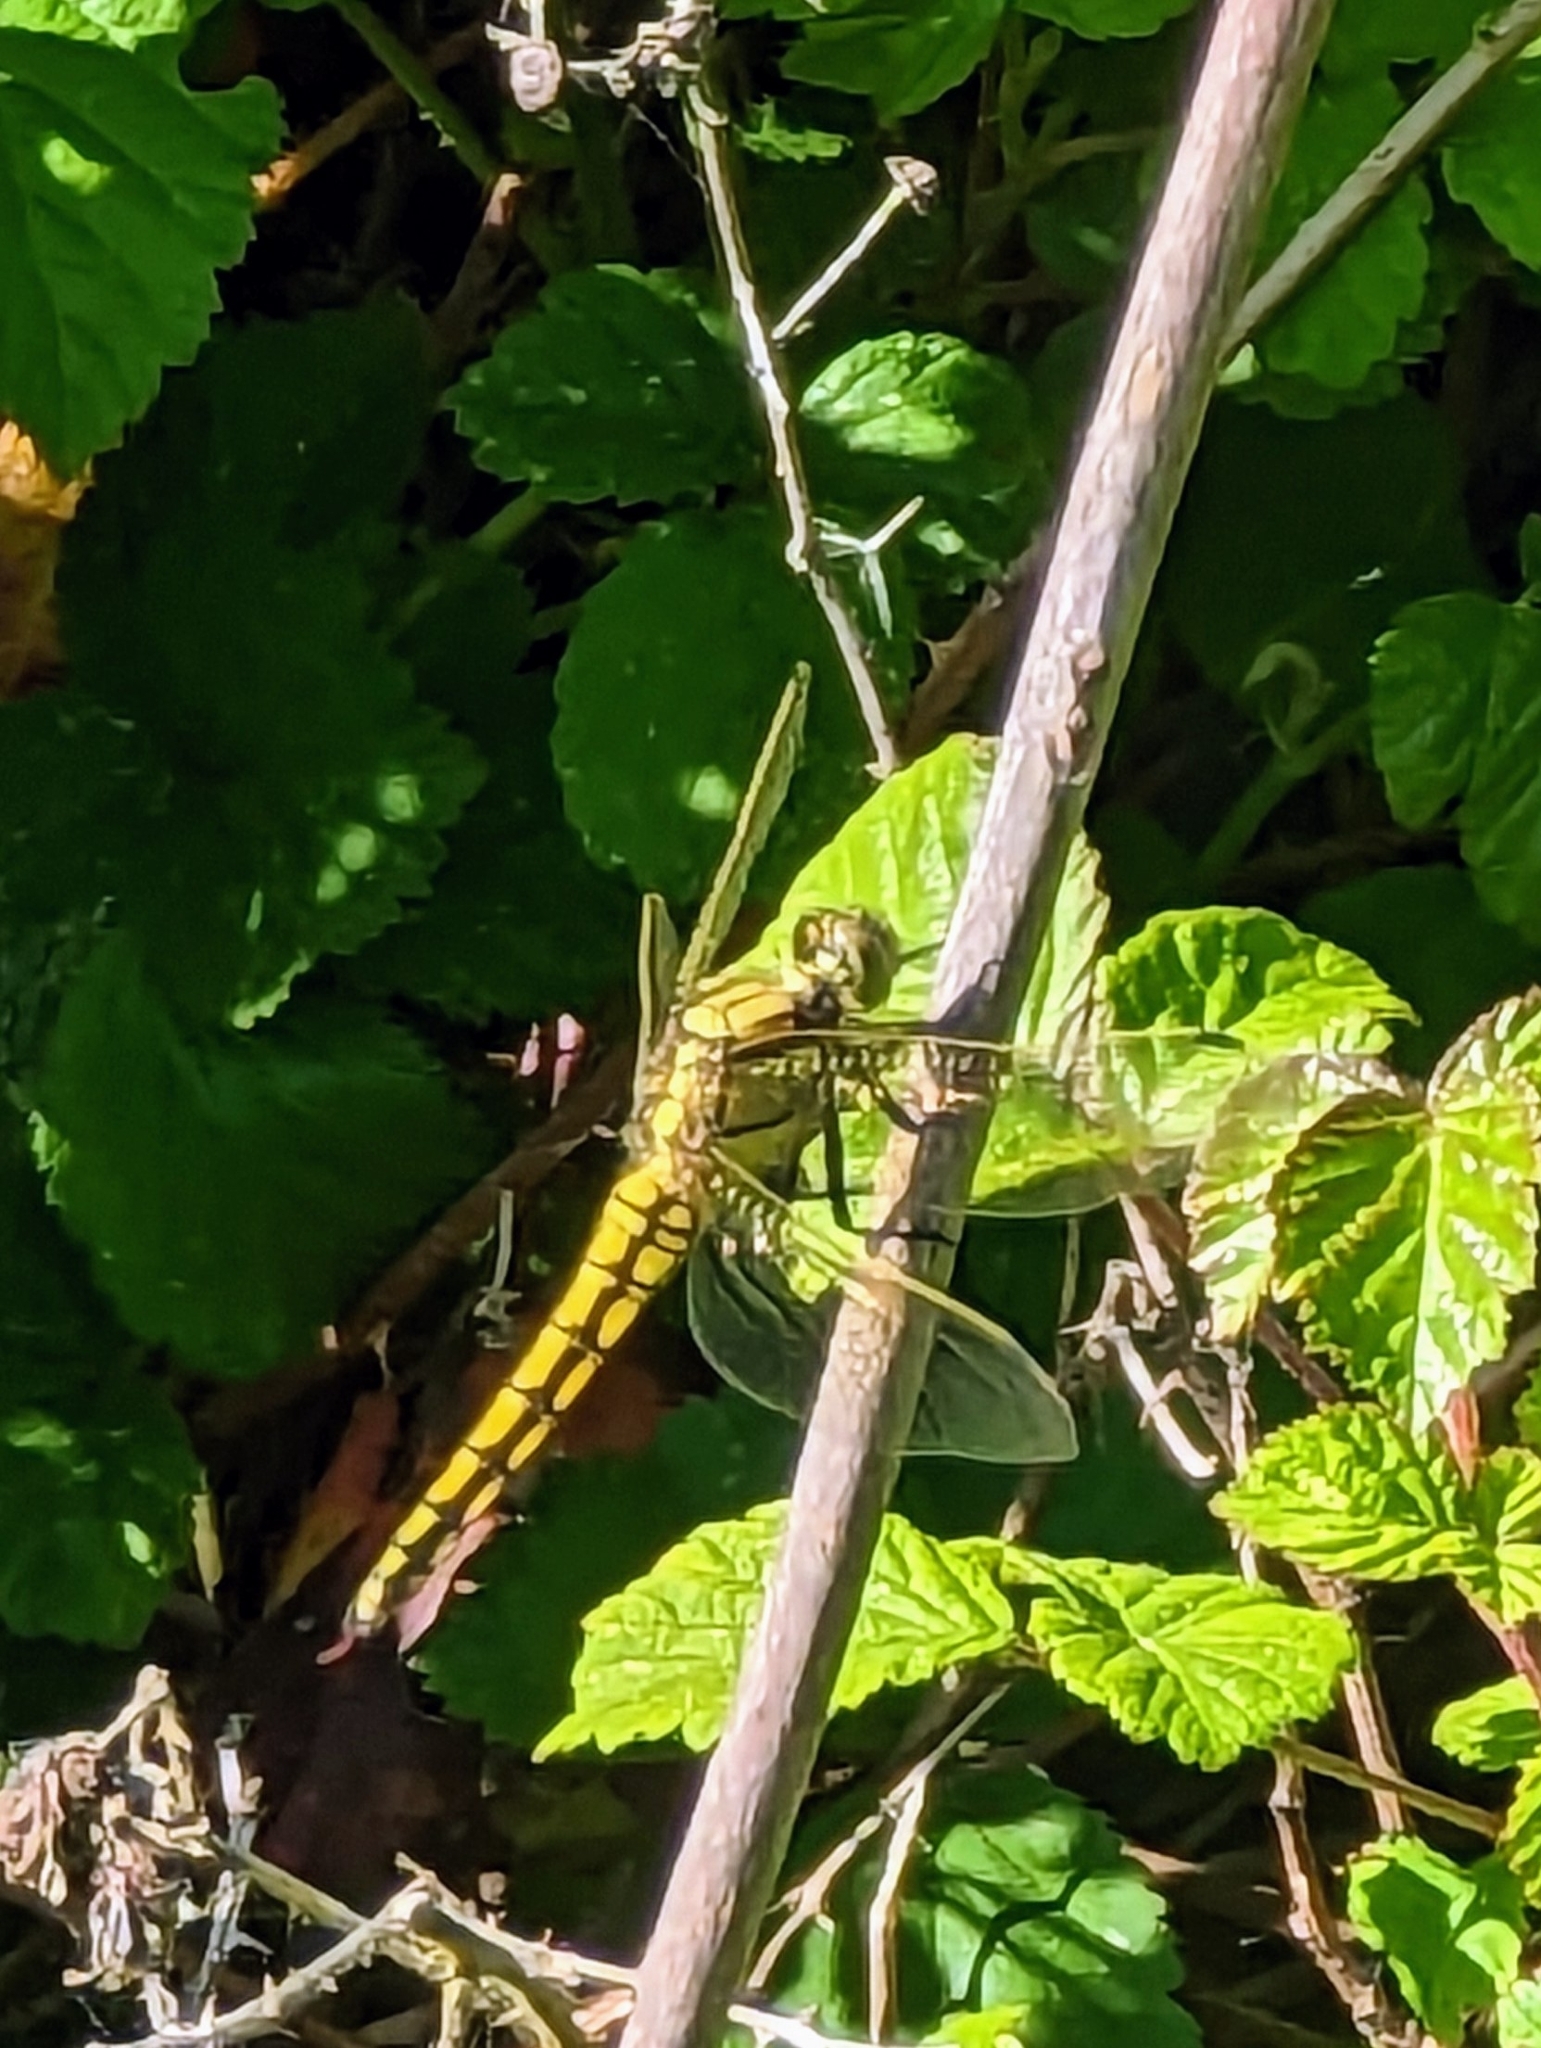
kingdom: Animalia
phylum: Arthropoda
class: Insecta
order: Odonata
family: Libellulidae
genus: Orthetrum
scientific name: Orthetrum cancellatum
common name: Black-tailed skimmer
